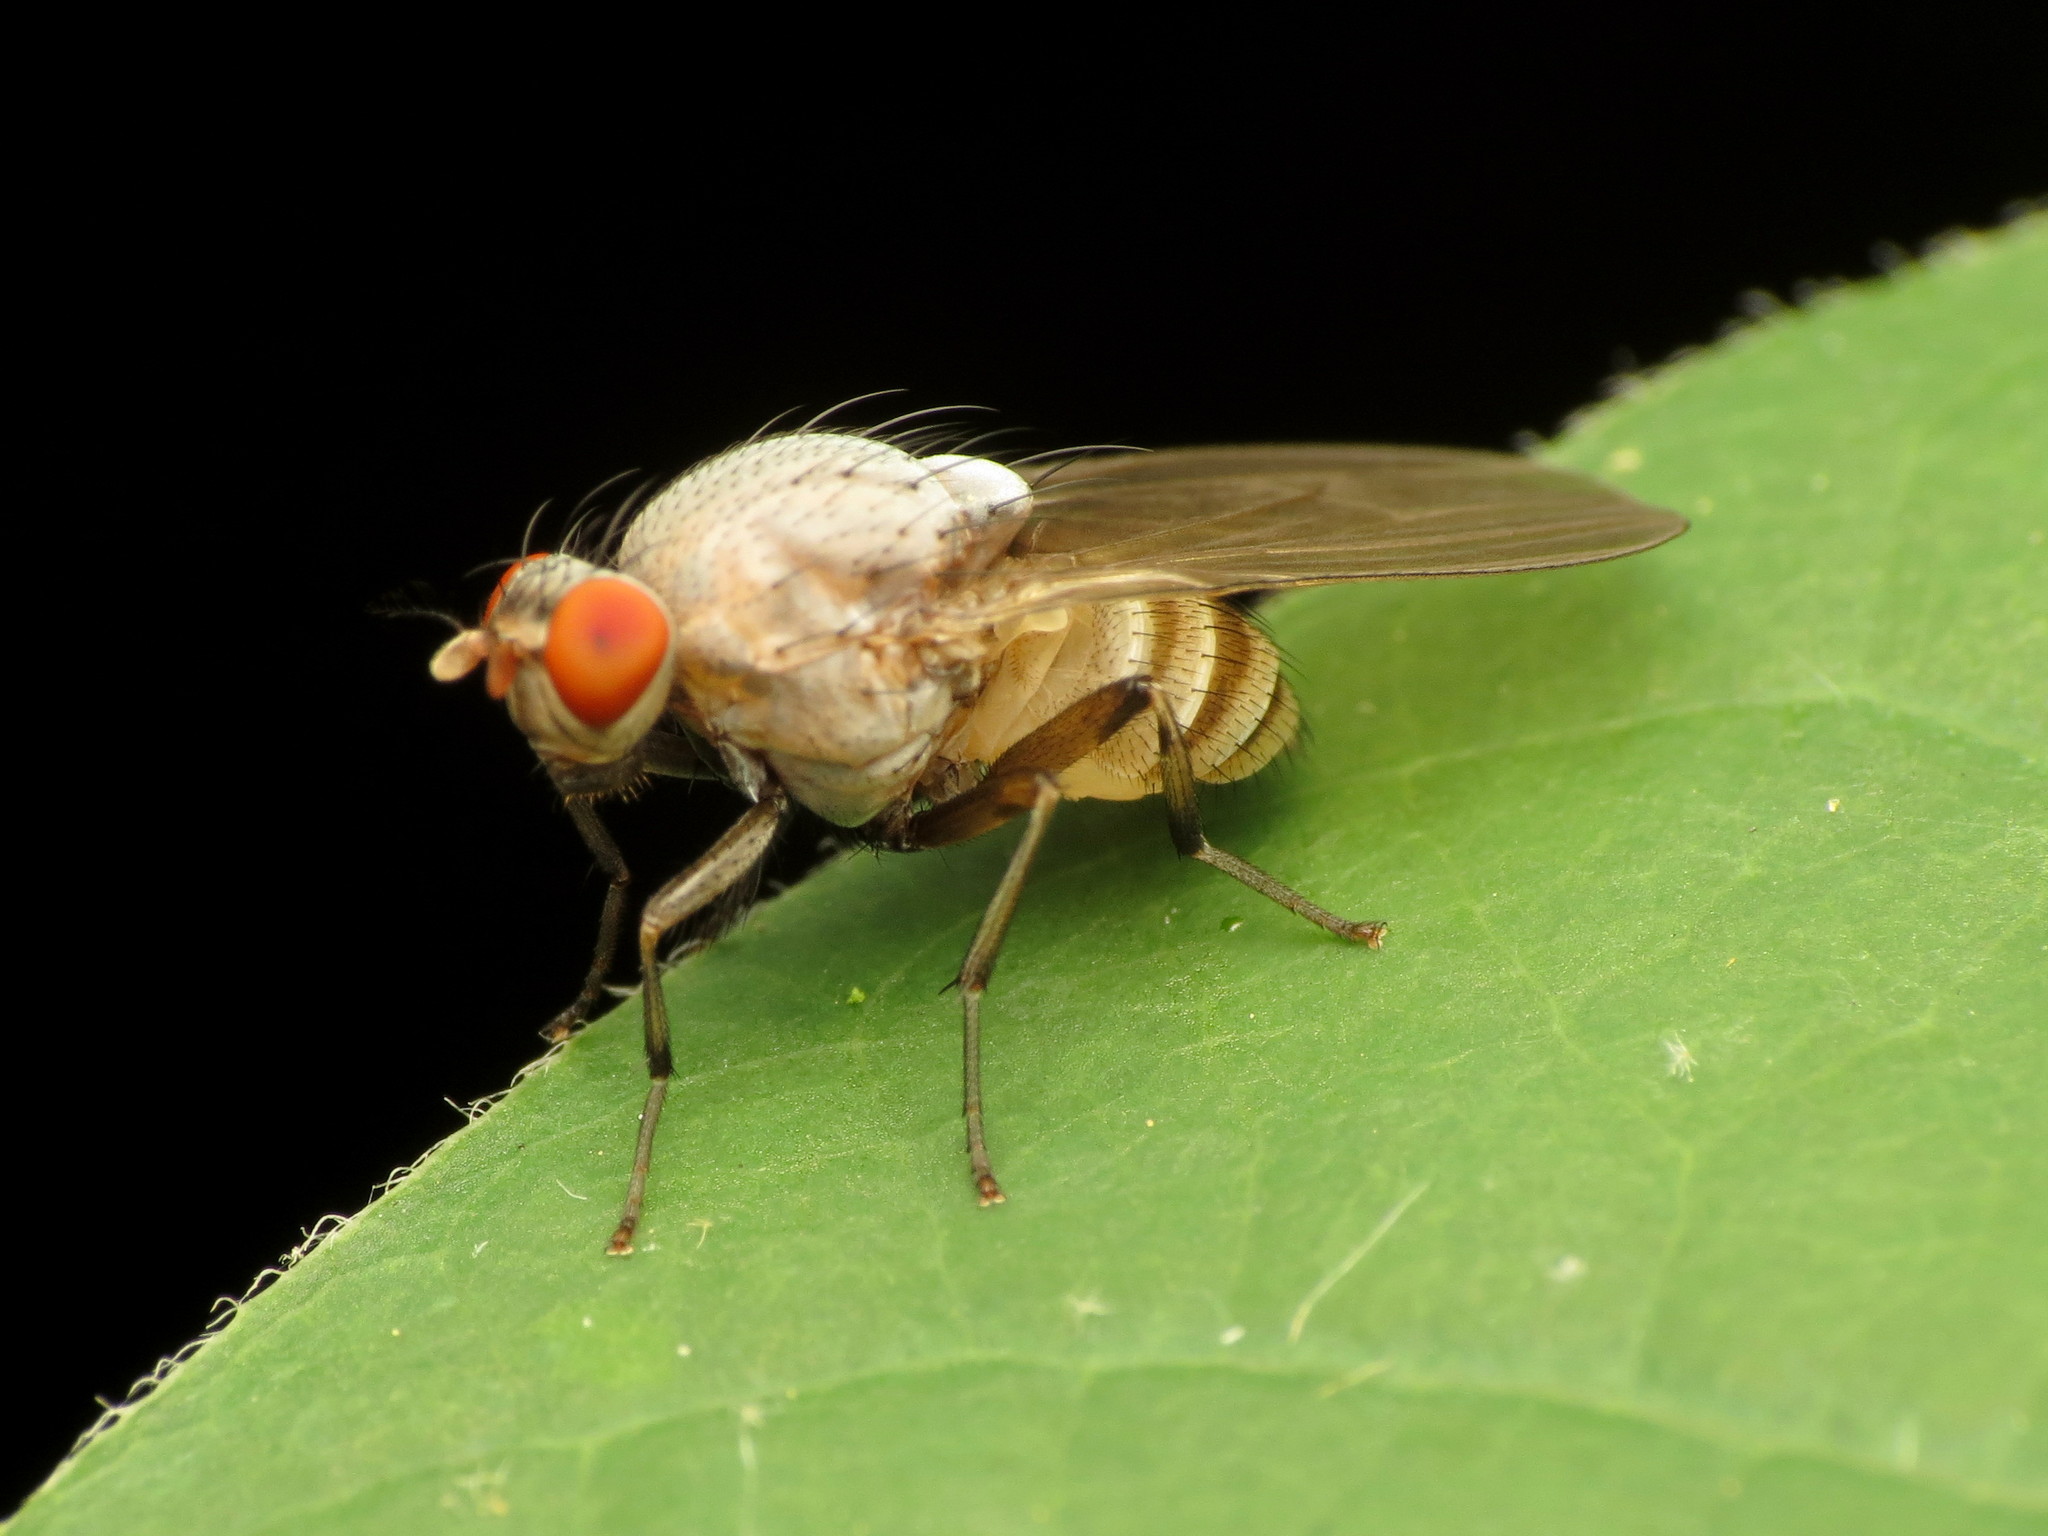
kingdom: Animalia
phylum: Arthropoda
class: Insecta
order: Diptera
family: Lauxaniidae
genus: Minettia
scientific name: Minettia magna
